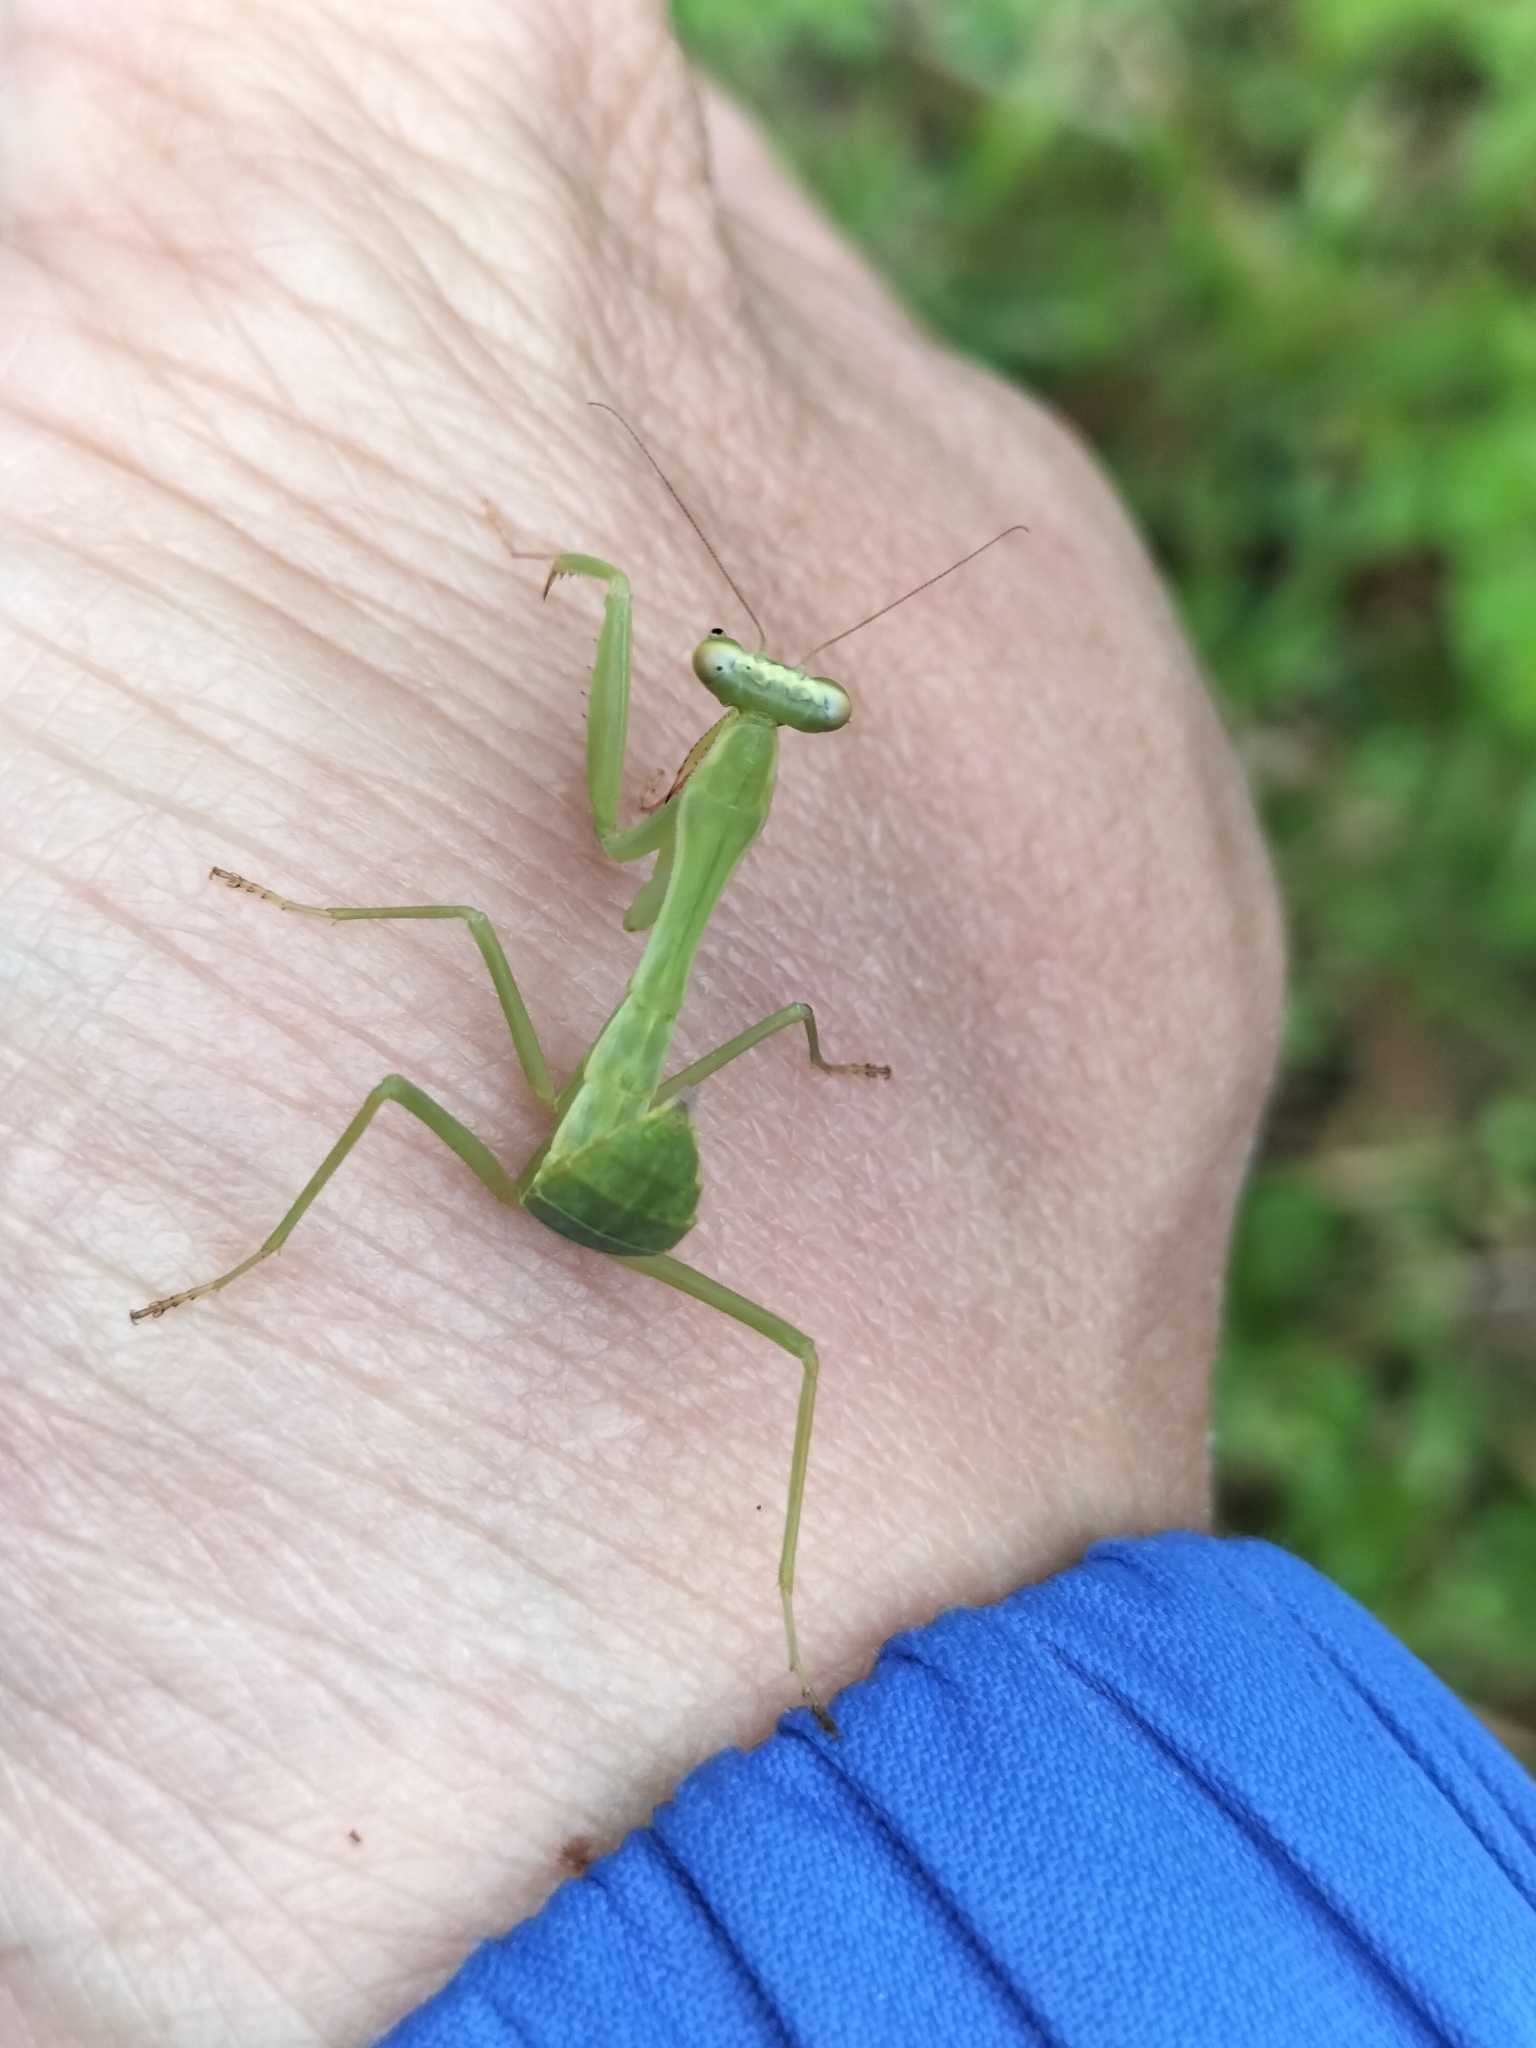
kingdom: Animalia
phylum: Arthropoda
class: Insecta
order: Mantodea
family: Mantidae
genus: Titanodula
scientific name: Titanodula formosana
